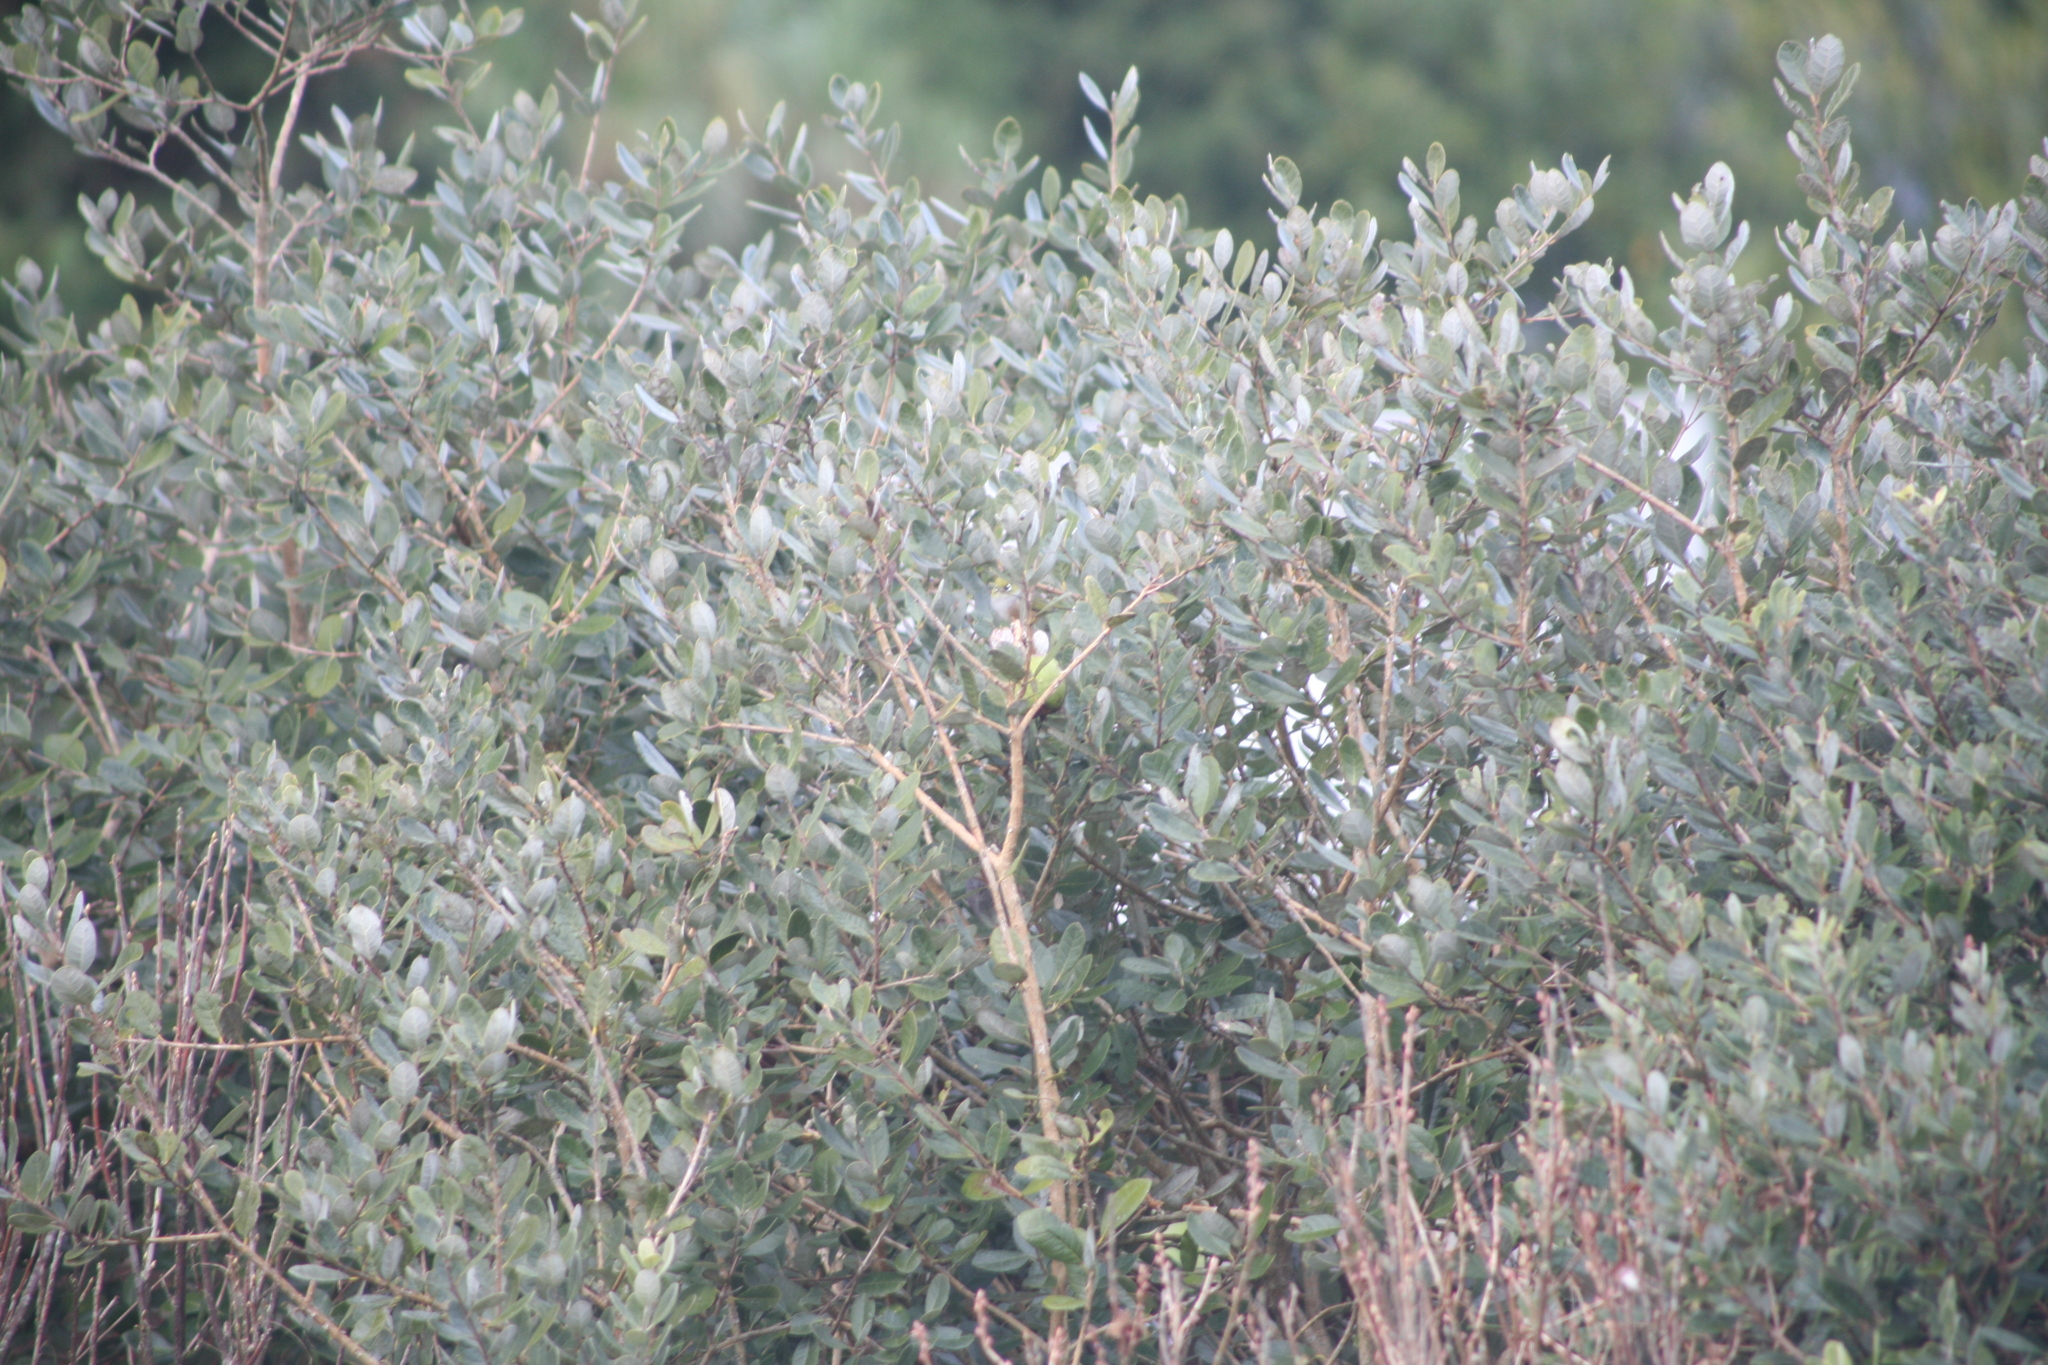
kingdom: Animalia
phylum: Chordata
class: Aves
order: Passeriformes
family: Zosteropidae
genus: Zosterops
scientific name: Zosterops lateralis
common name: Silvereye
